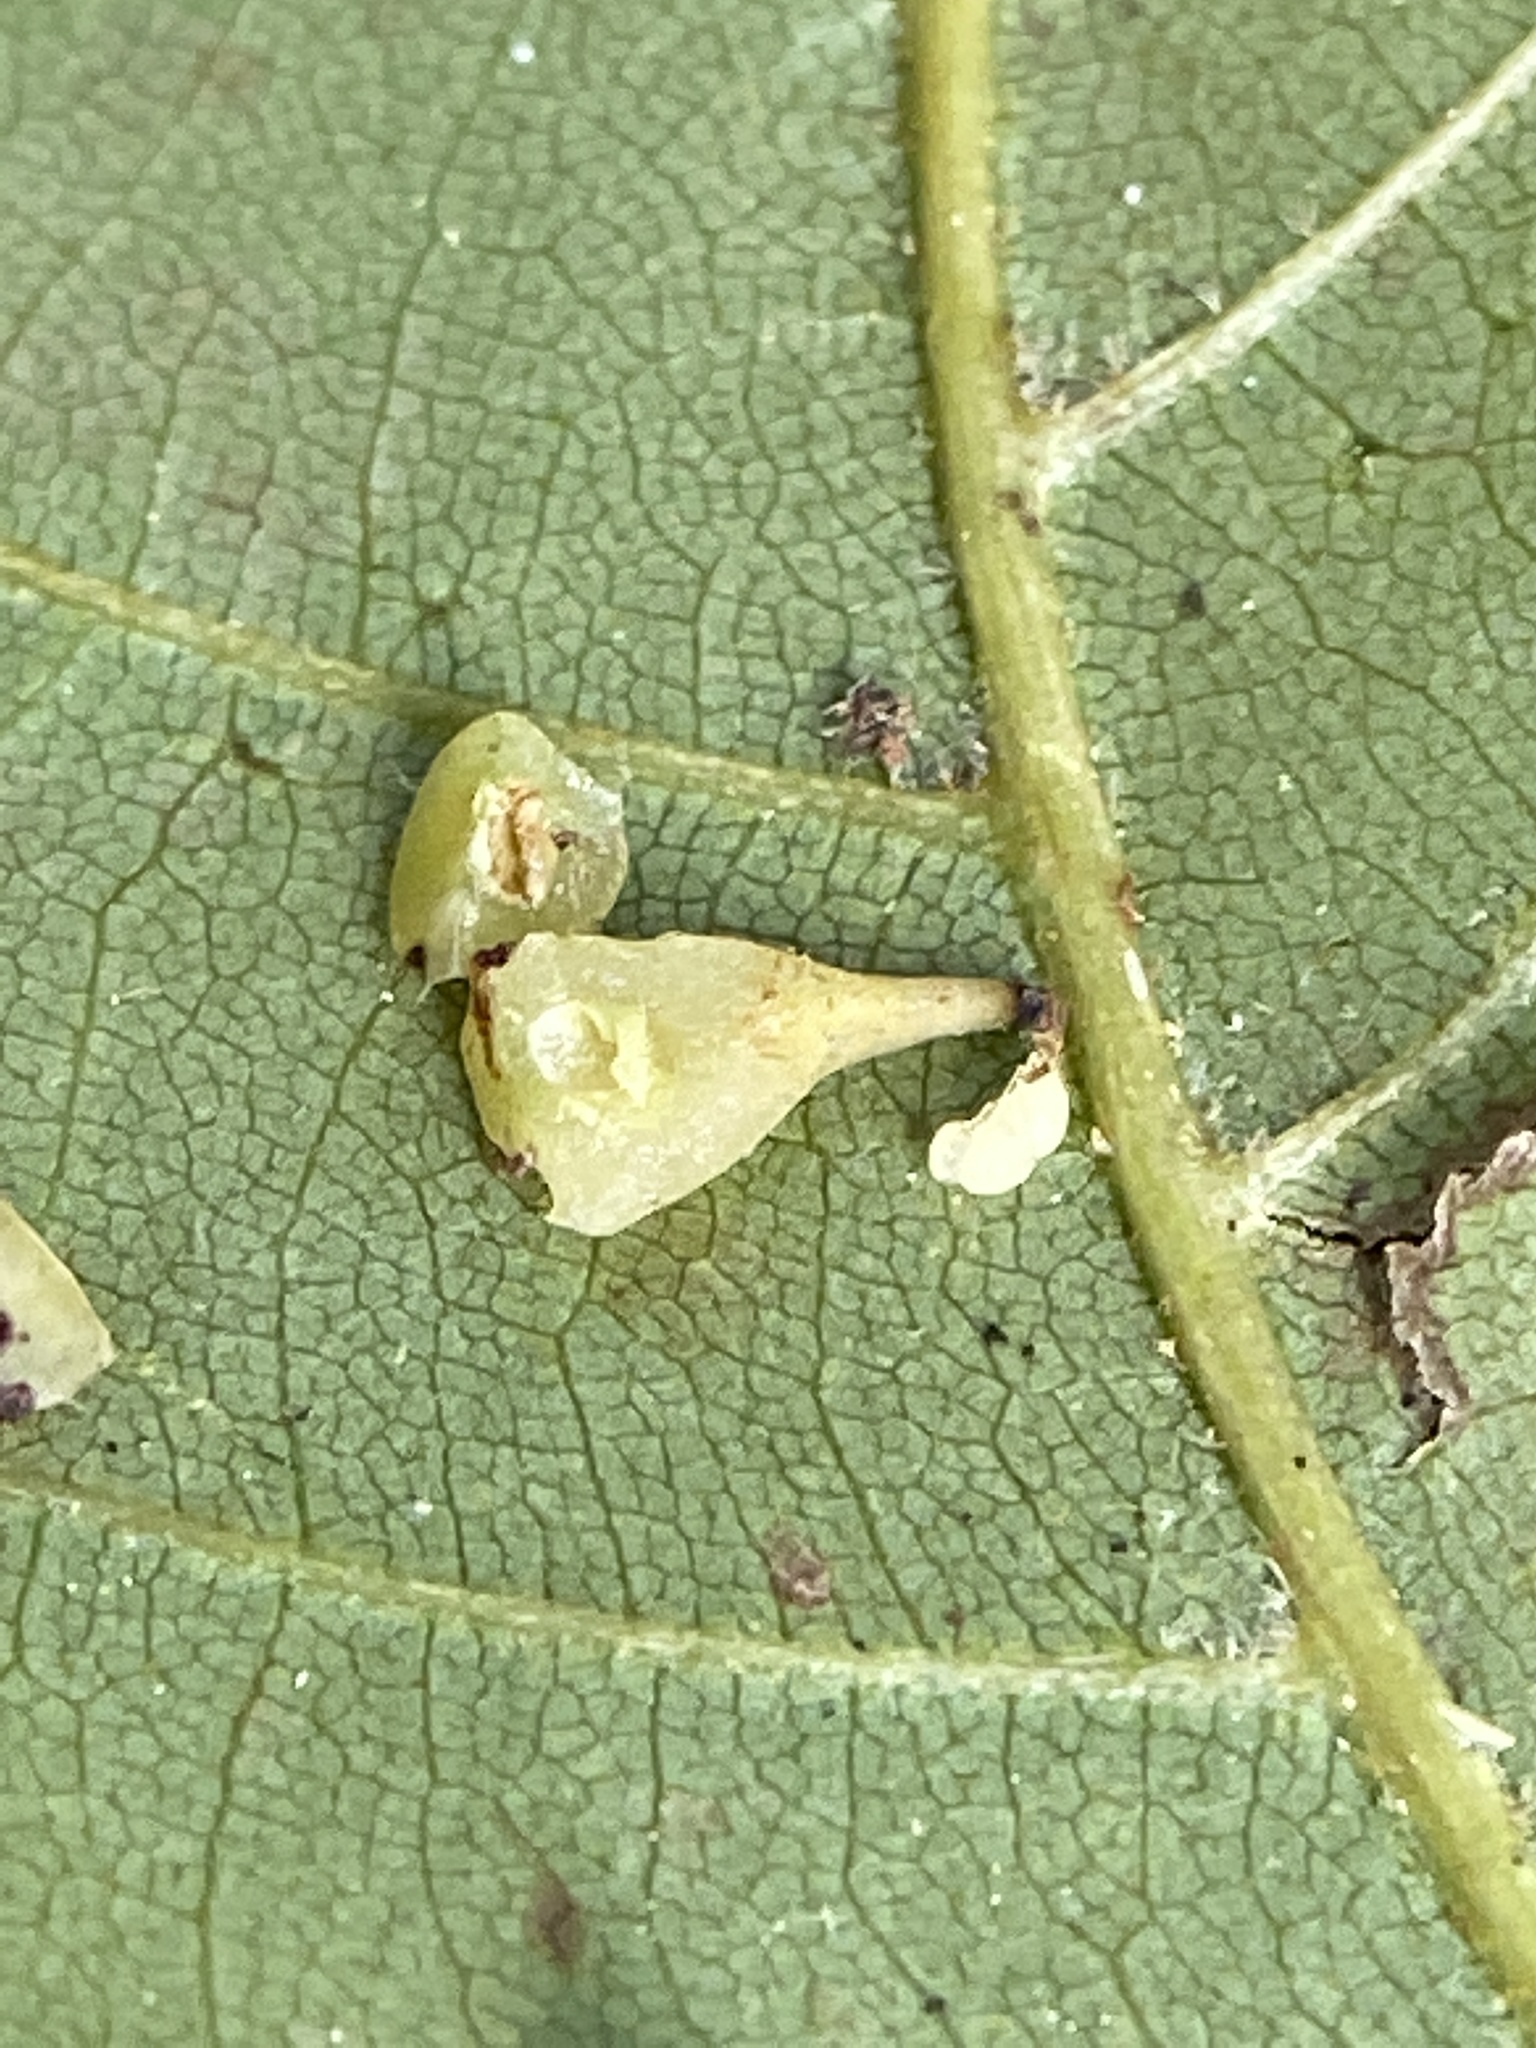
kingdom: Animalia
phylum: Arthropoda
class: Insecta
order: Diptera
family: Cecidomyiidae
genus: Caryomyia
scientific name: Caryomyia sanguinolenta
